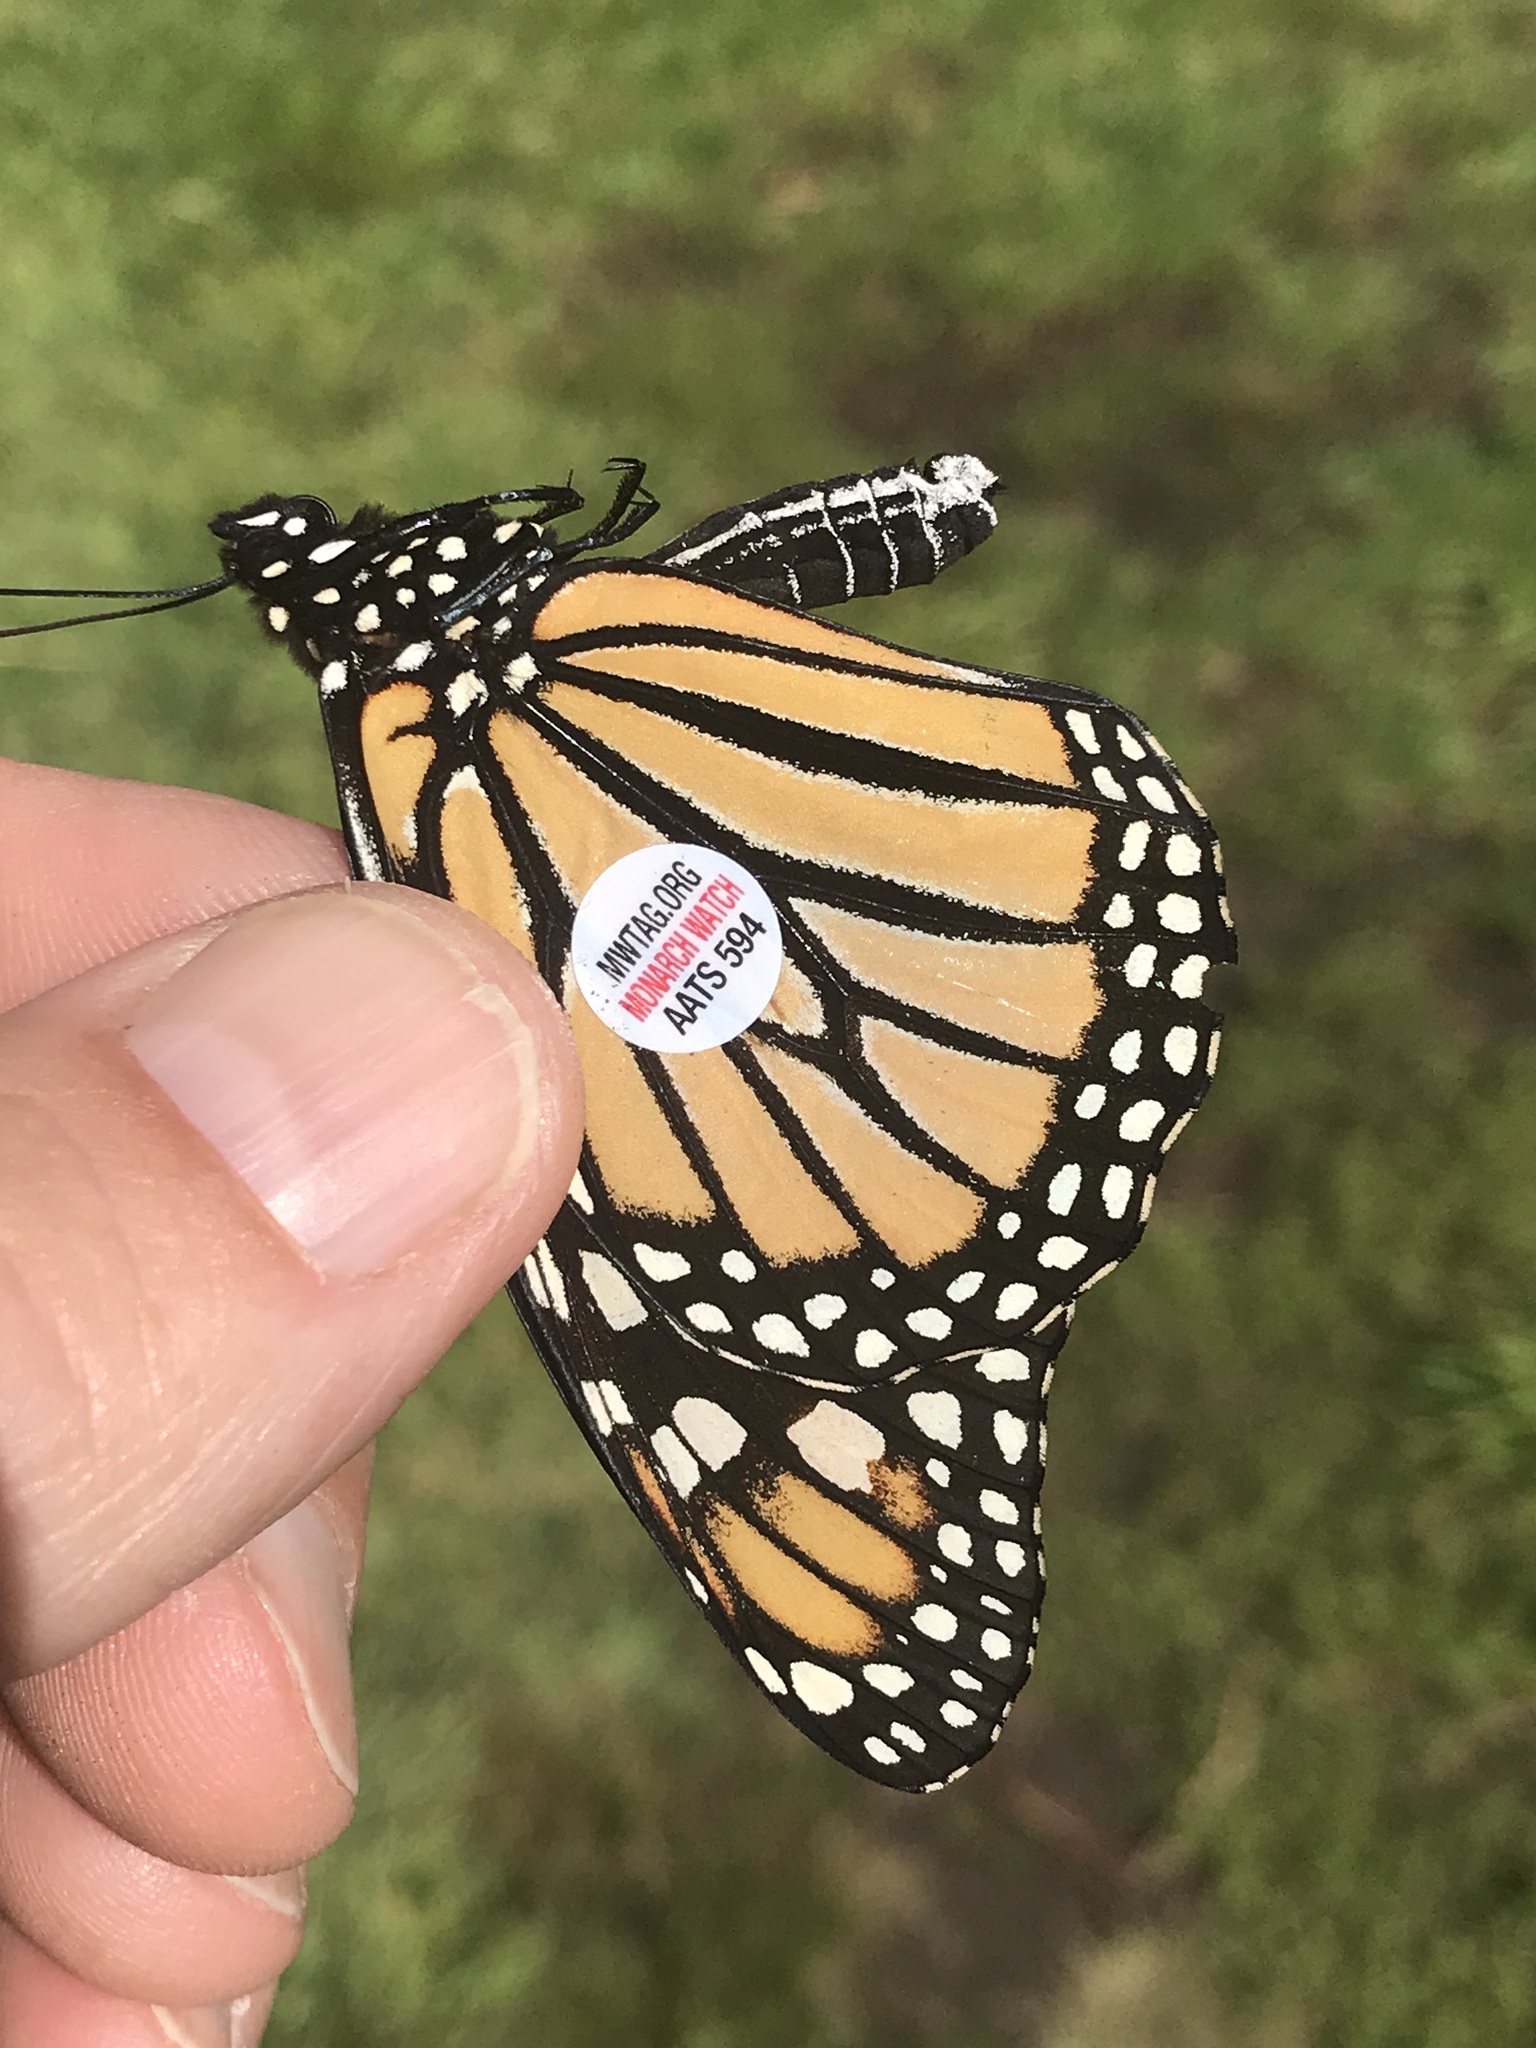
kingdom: Animalia
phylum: Arthropoda
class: Insecta
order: Lepidoptera
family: Nymphalidae
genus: Danaus
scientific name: Danaus plexippus
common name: Monarch
